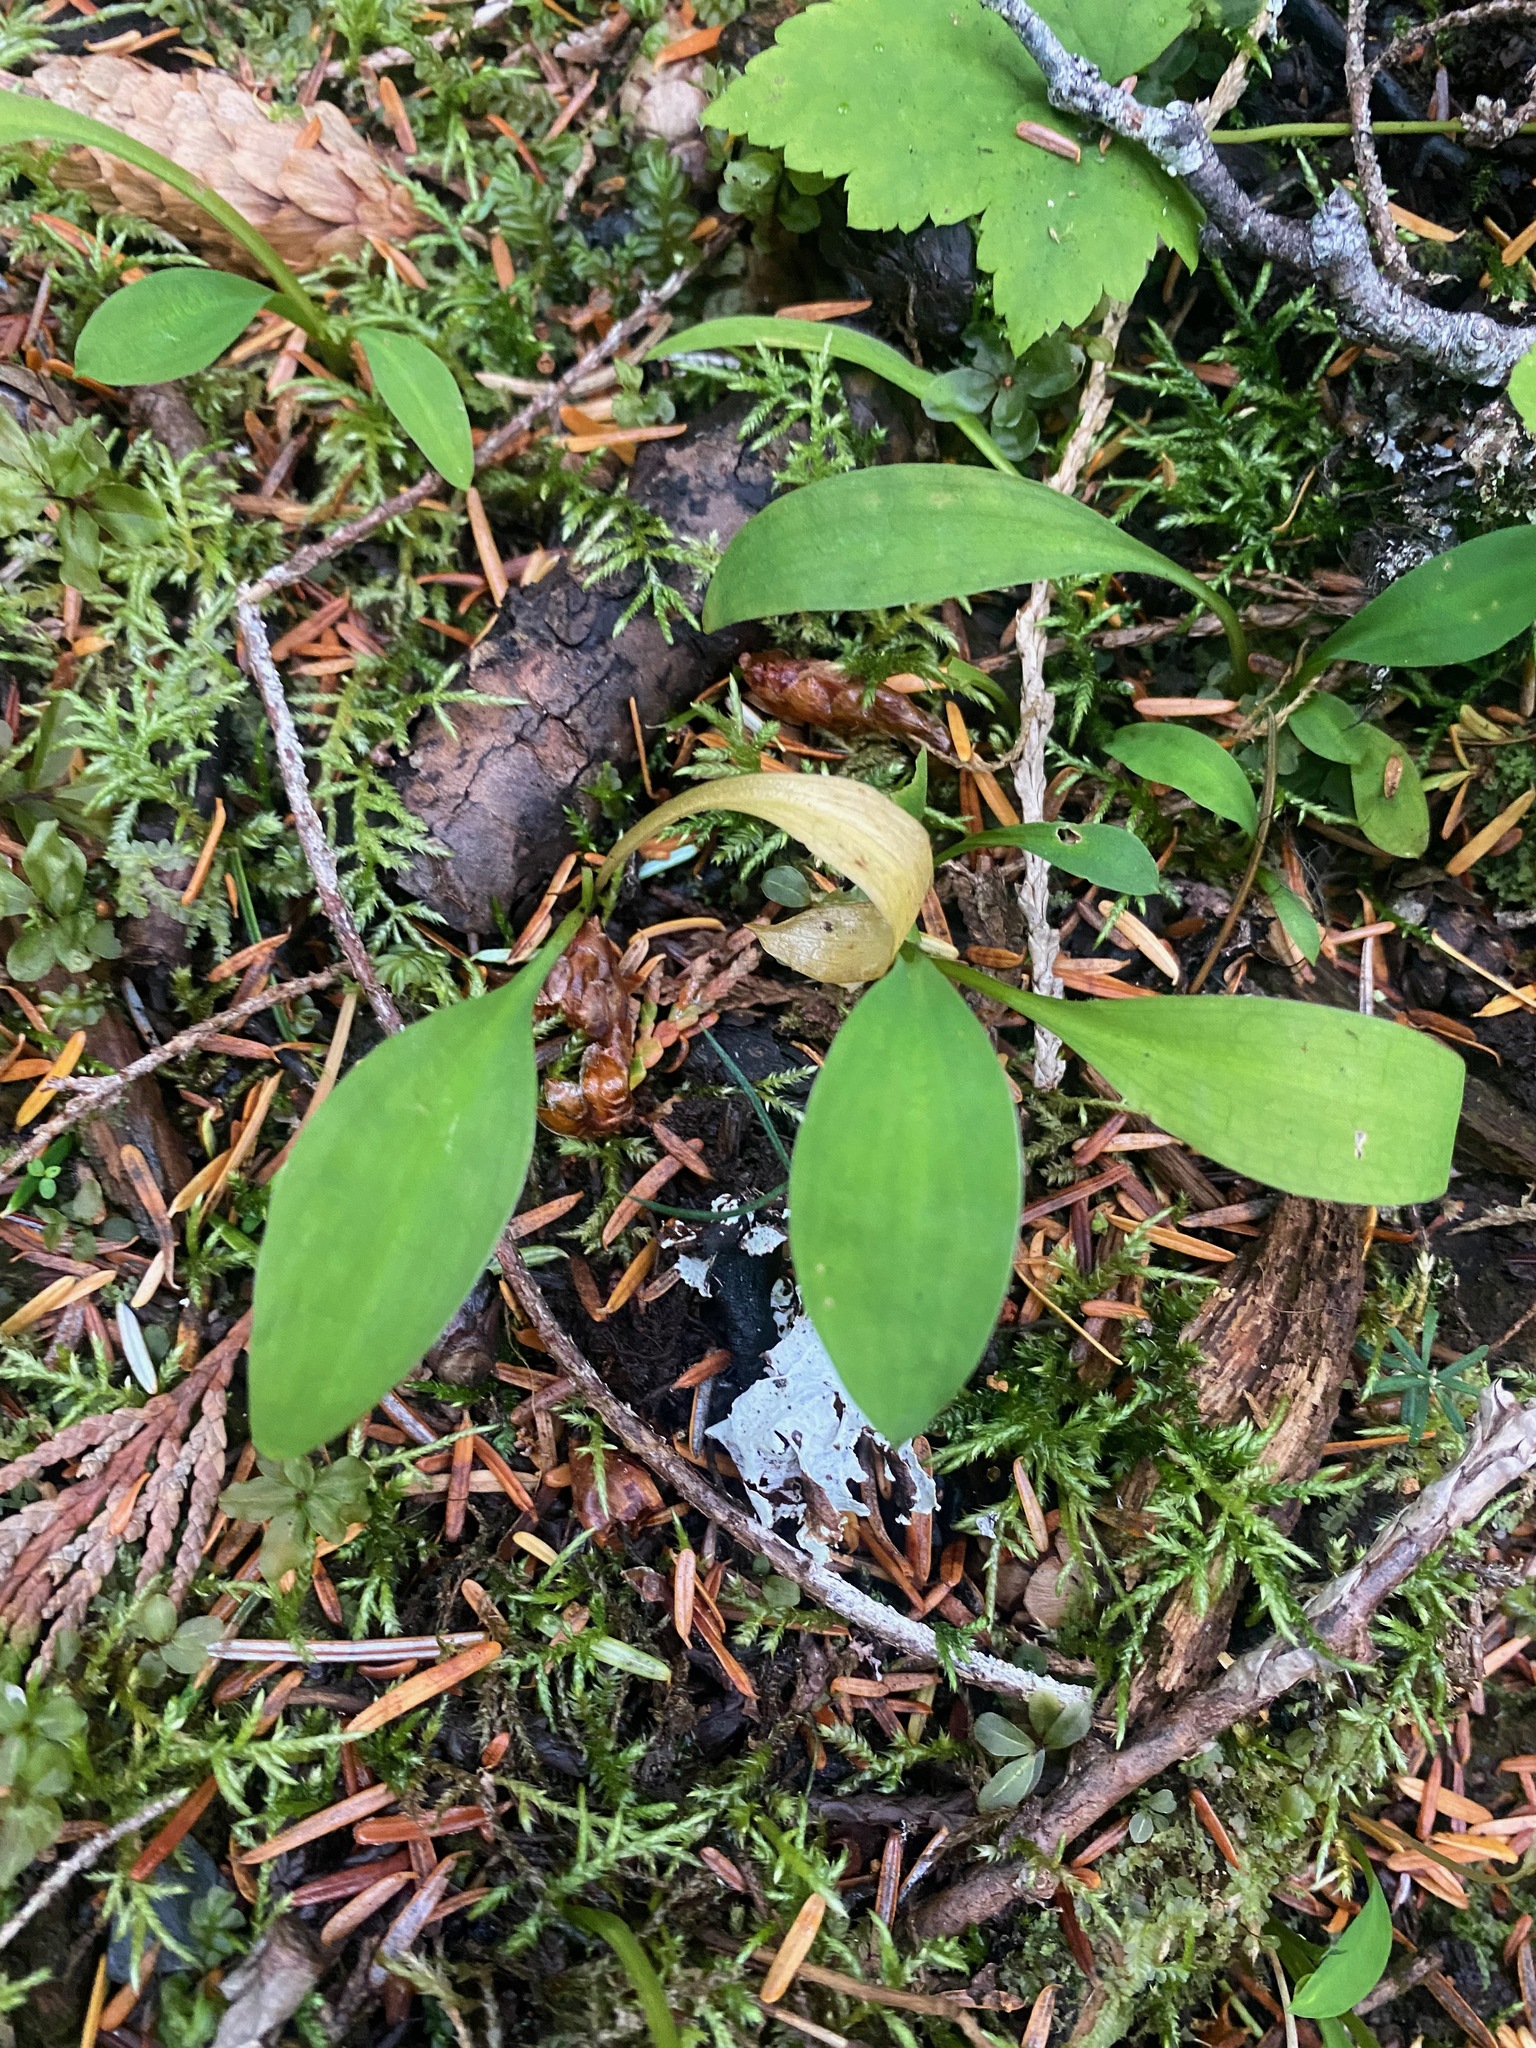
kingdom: Plantae
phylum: Tracheophyta
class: Liliopsida
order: Liliales
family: Liliaceae
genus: Clintonia
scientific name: Clintonia uniflora
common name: Queen's cup
